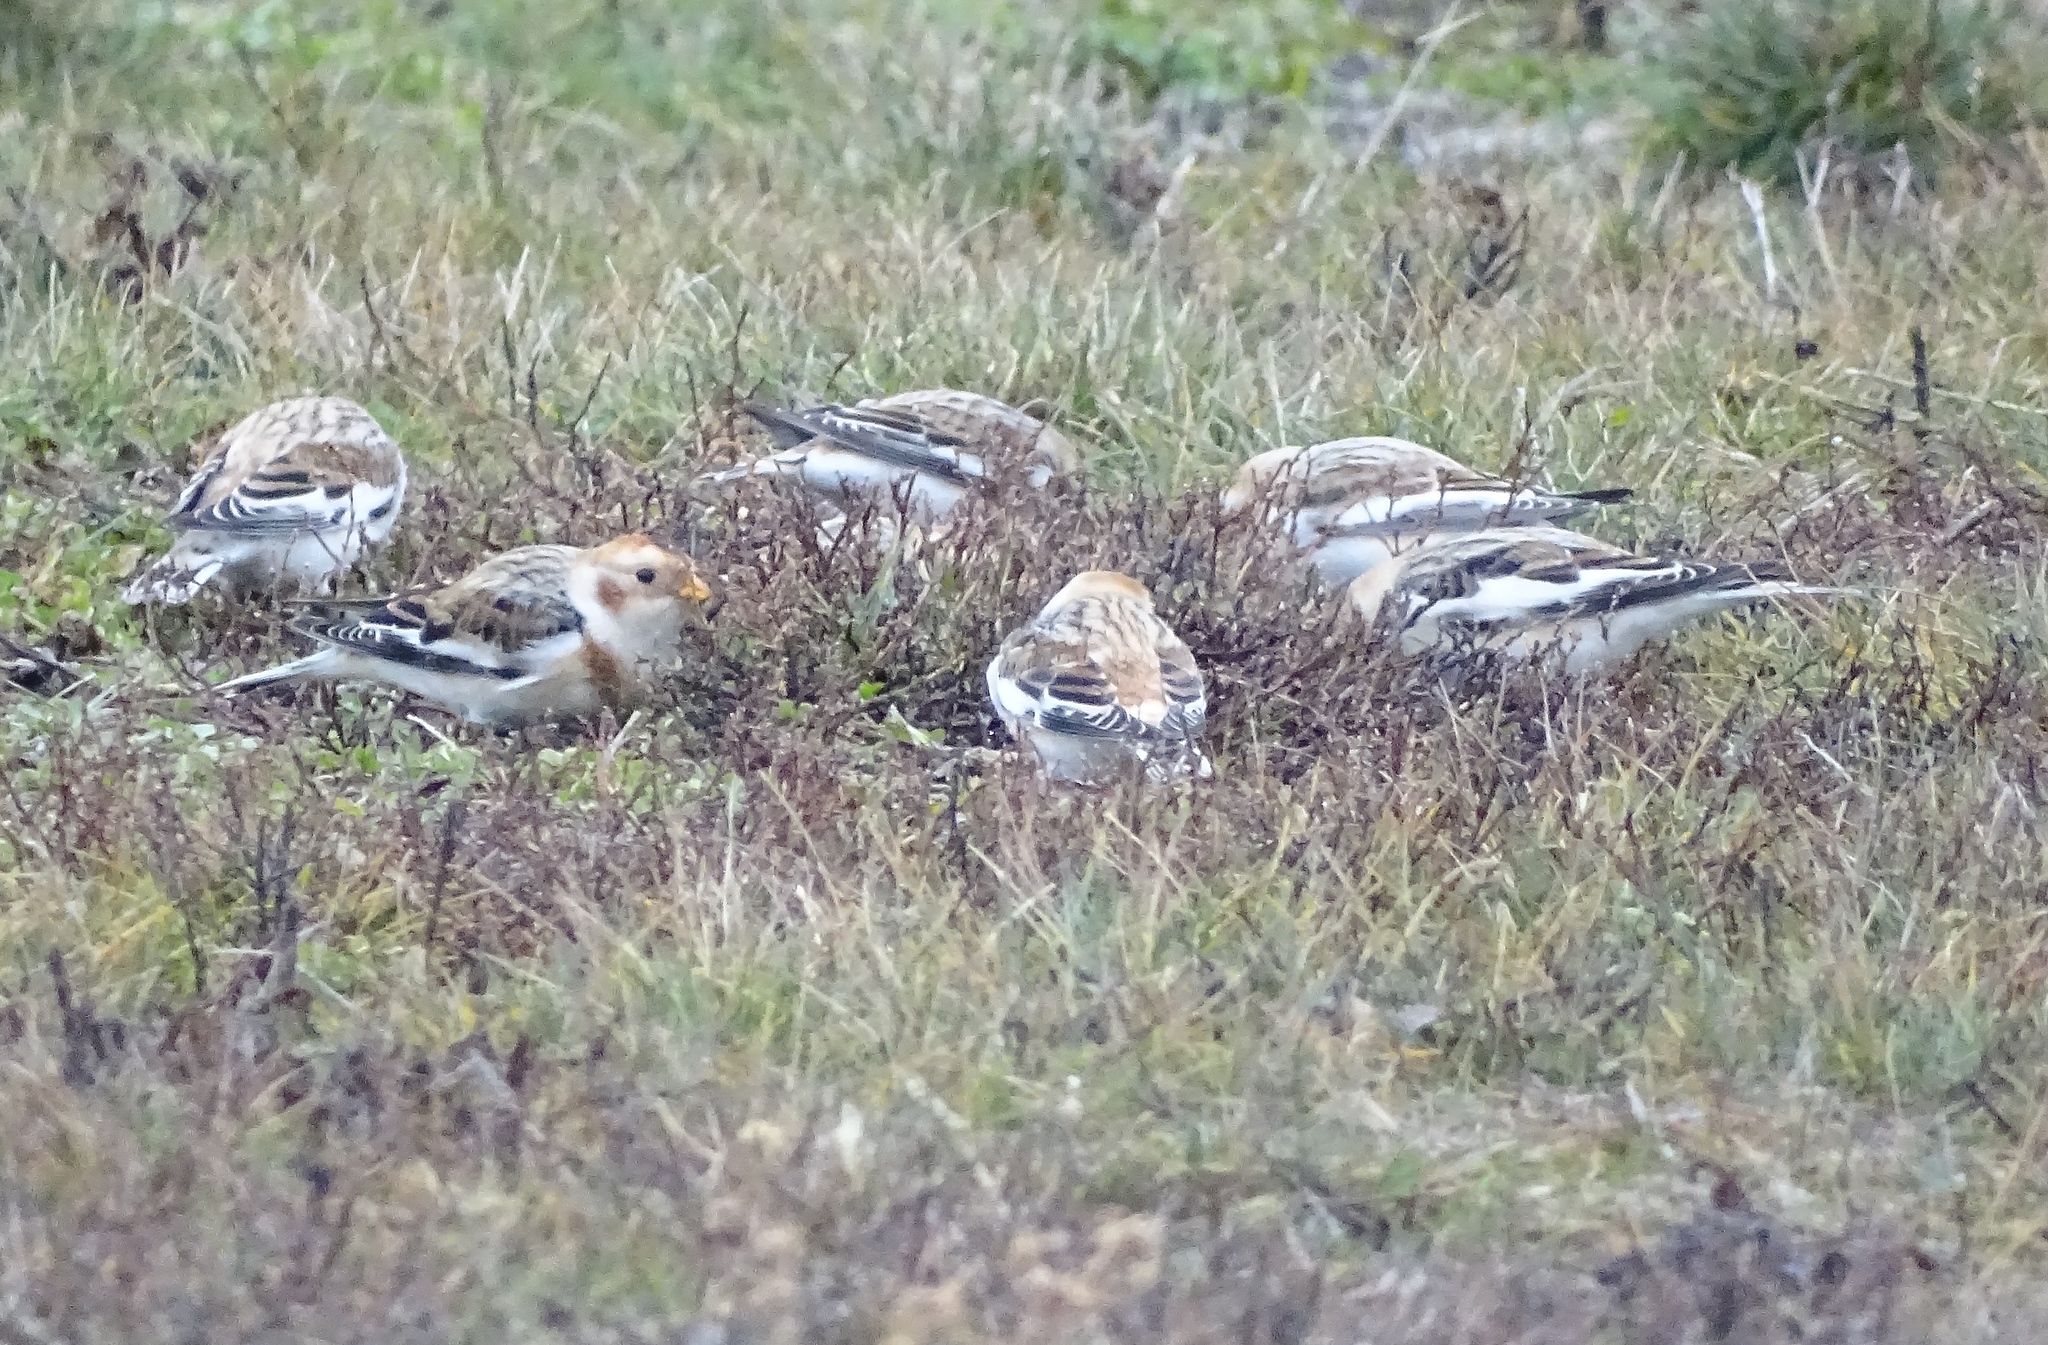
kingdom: Animalia
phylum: Chordata
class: Aves
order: Passeriformes
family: Calcariidae
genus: Plectrophenax
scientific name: Plectrophenax nivalis
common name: Snow bunting
